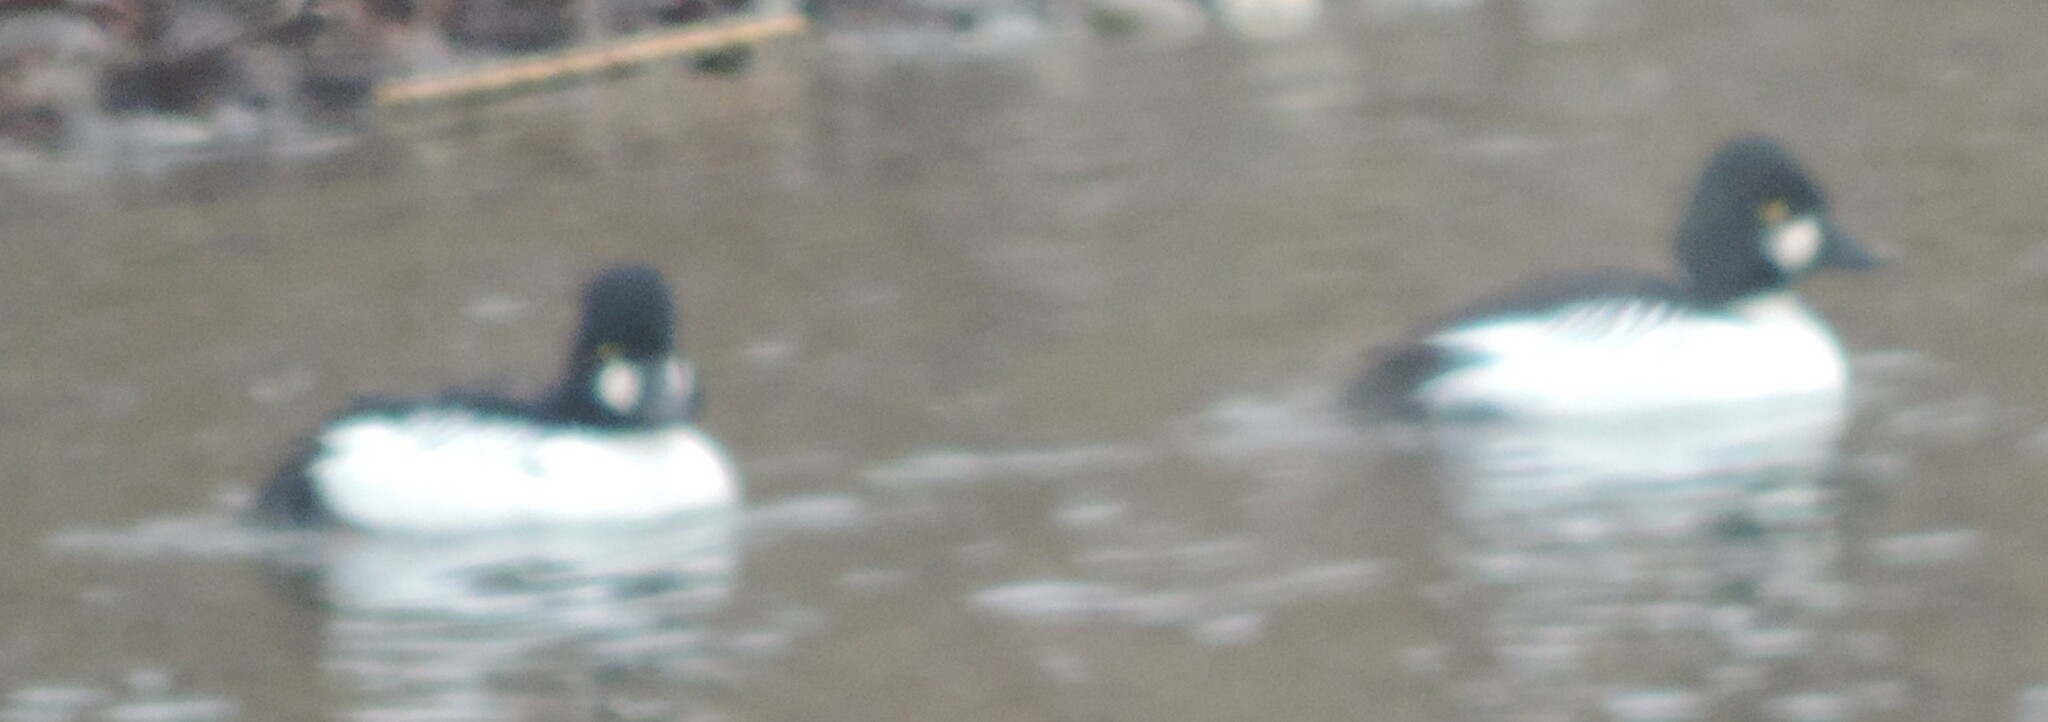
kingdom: Animalia
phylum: Chordata
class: Aves
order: Anseriformes
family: Anatidae
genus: Bucephala
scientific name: Bucephala clangula
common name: Common goldeneye
